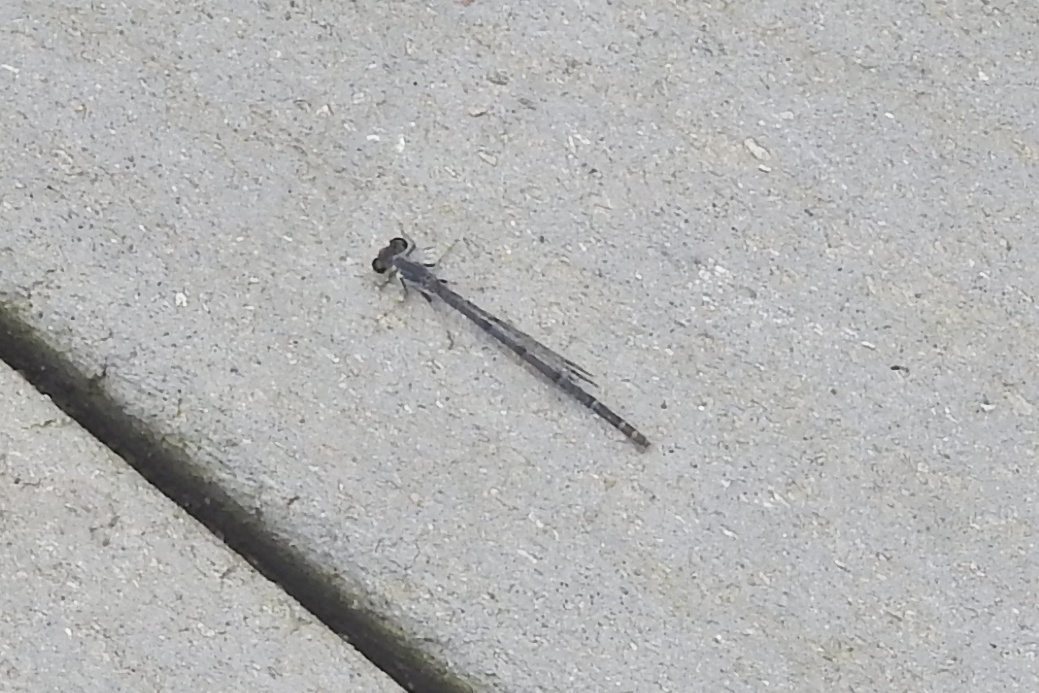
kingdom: Animalia
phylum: Arthropoda
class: Insecta
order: Odonata
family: Coenagrionidae
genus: Ischnura
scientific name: Ischnura posita
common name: Fragile forktail
